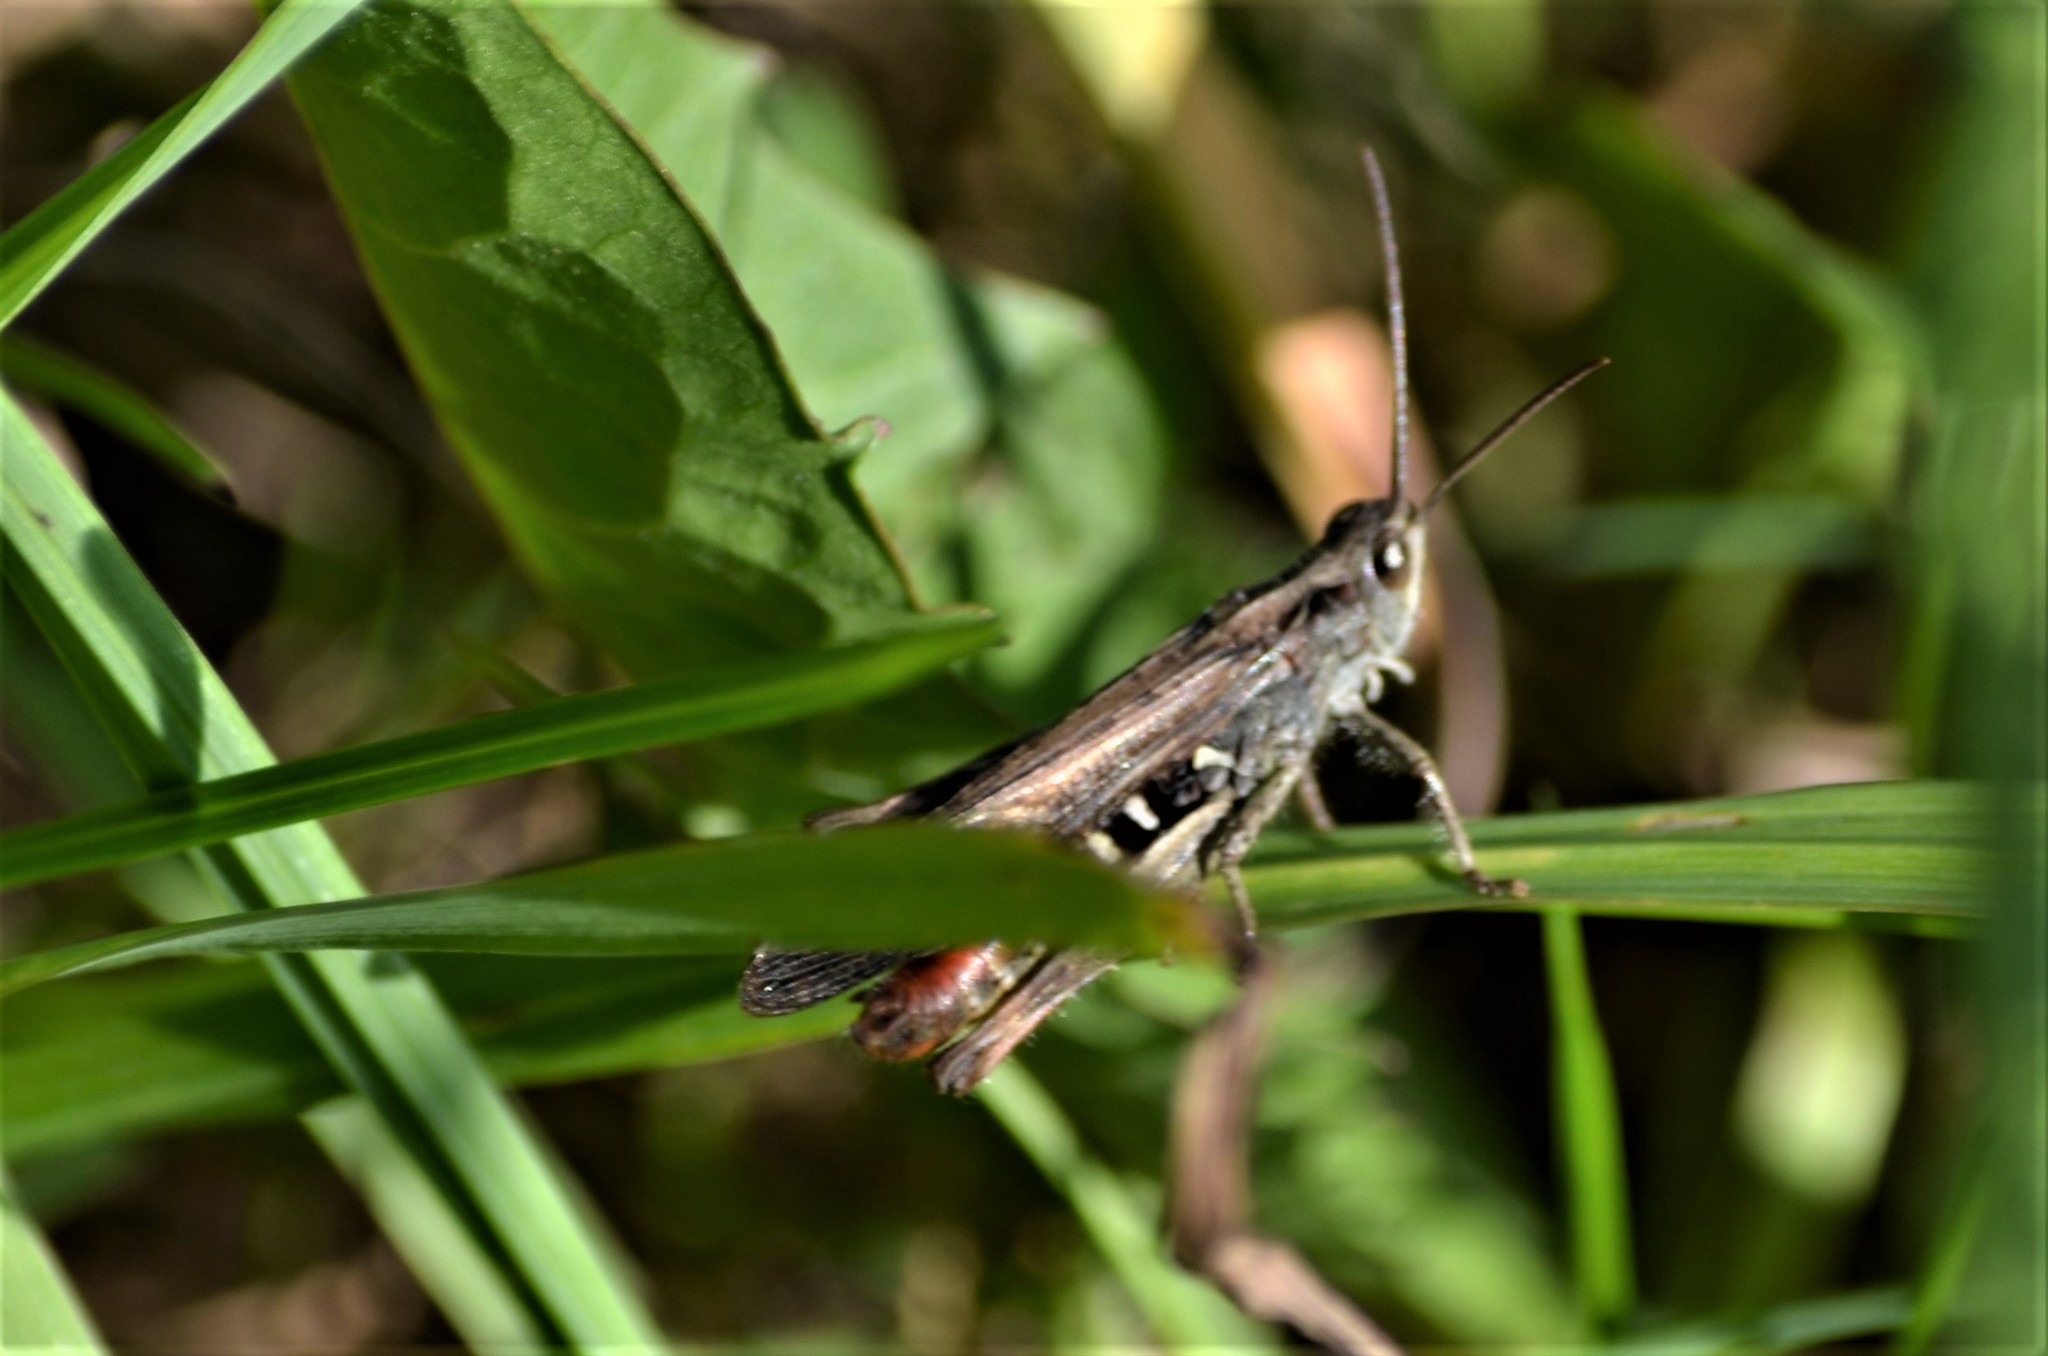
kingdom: Animalia
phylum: Arthropoda
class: Insecta
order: Orthoptera
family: Acrididae
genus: Chorthippus
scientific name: Chorthippus brunneus
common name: Field grasshopper
